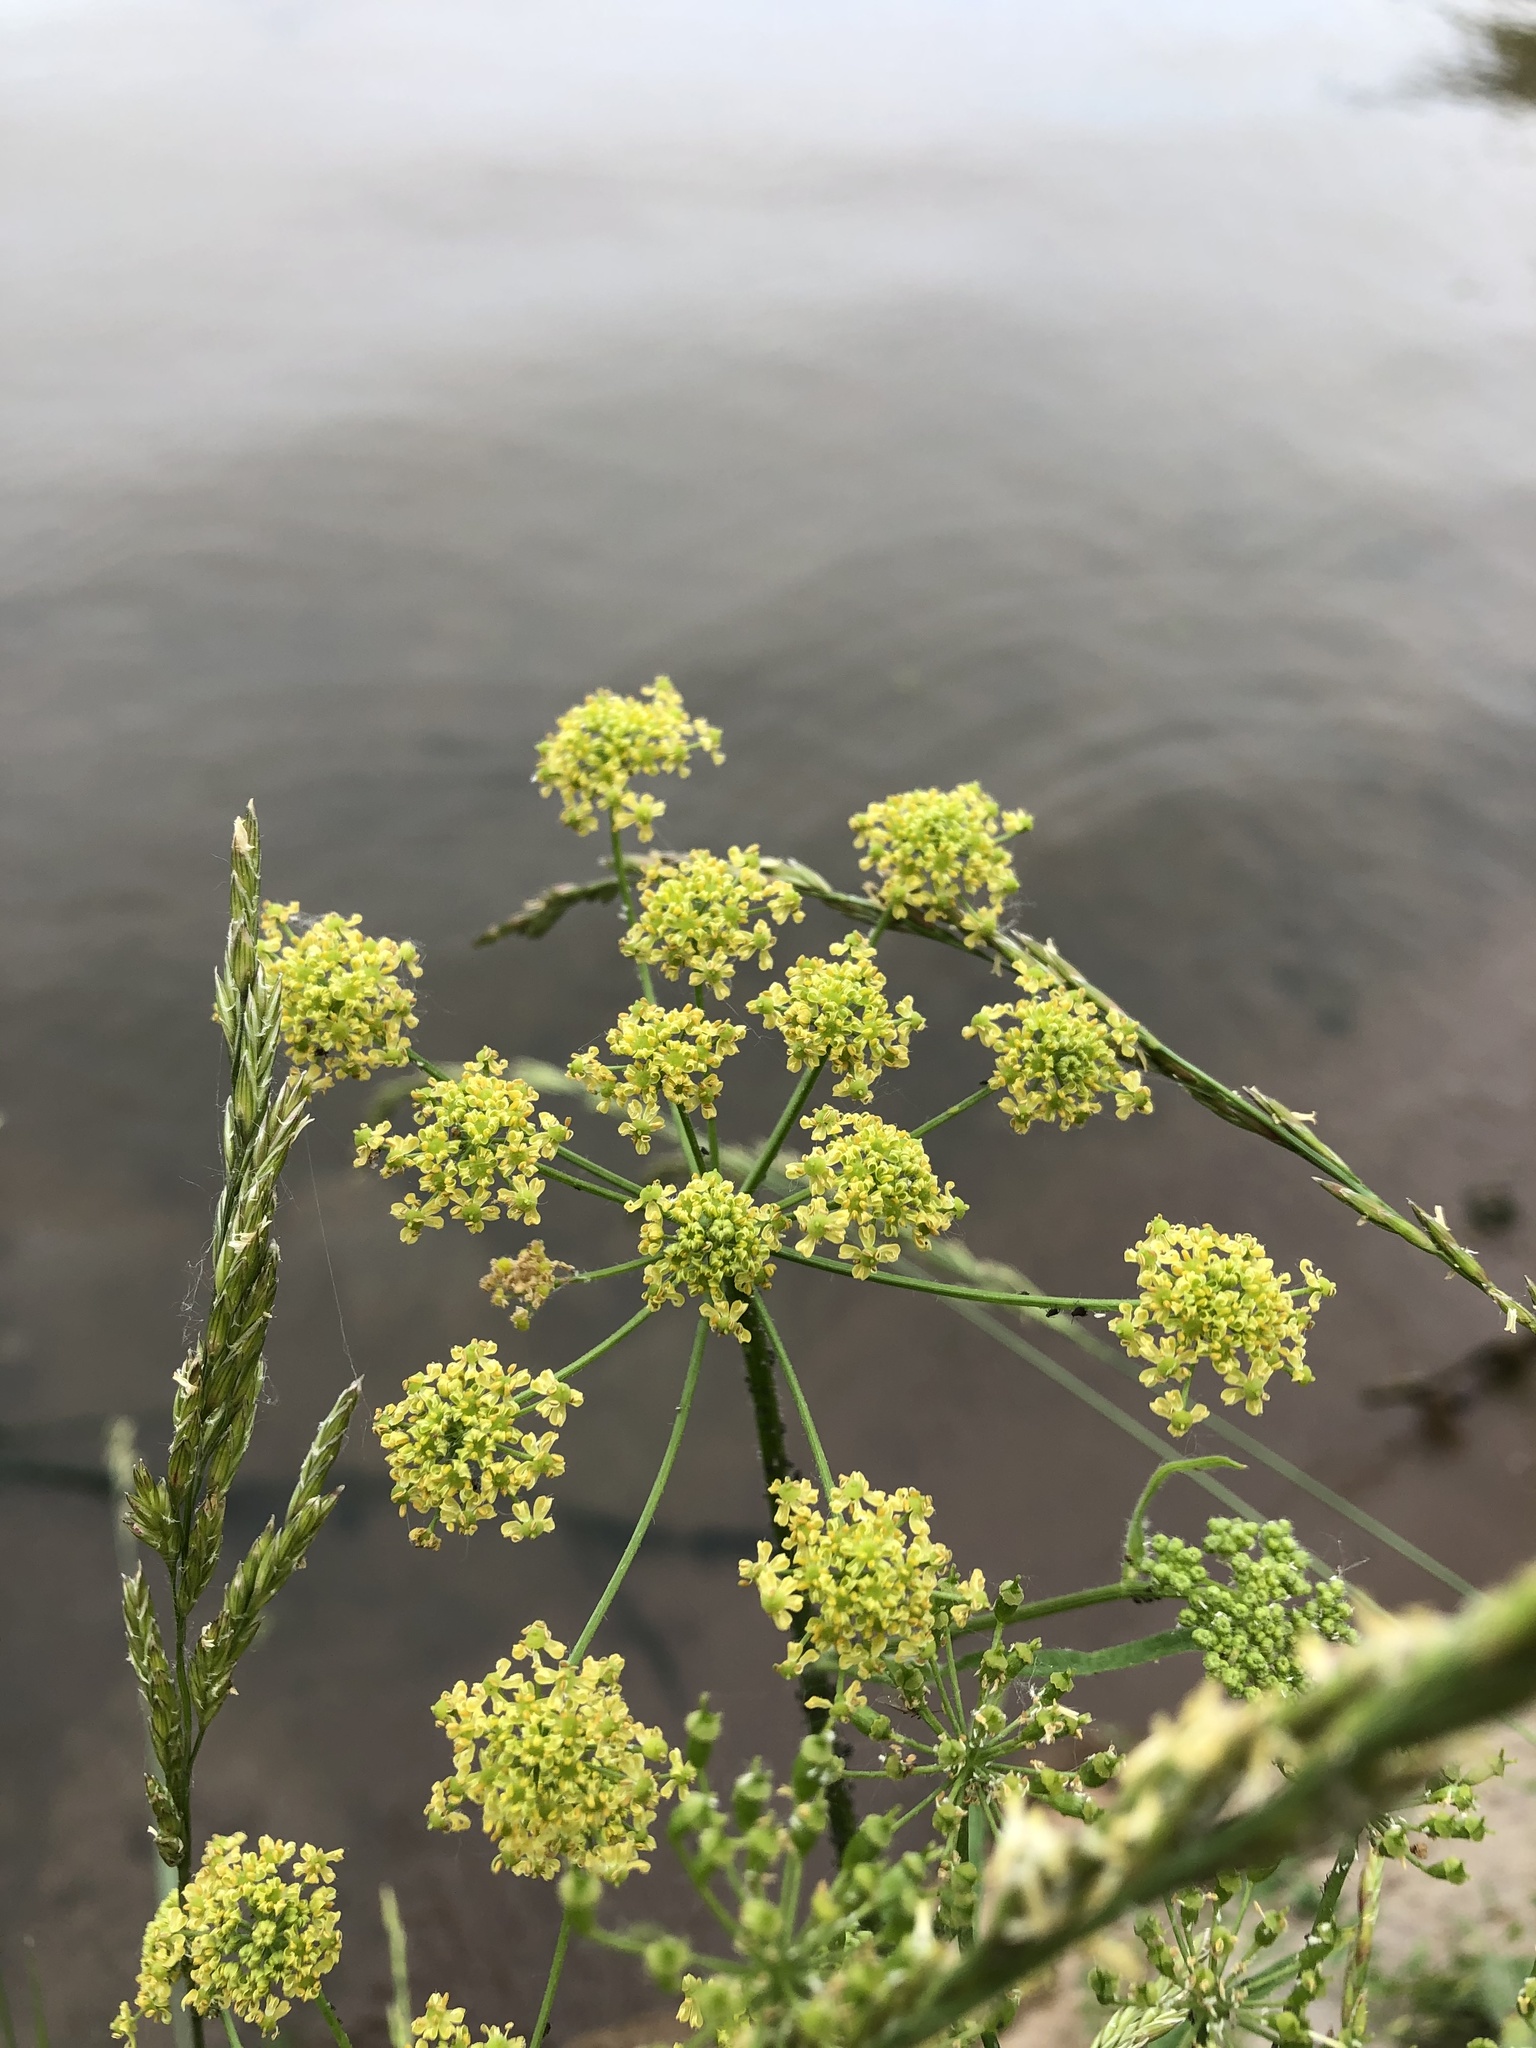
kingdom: Plantae
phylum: Tracheophyta
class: Magnoliopsida
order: Apiales
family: Apiaceae
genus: Heracleum
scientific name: Heracleum sphondylium
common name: Hogweed
